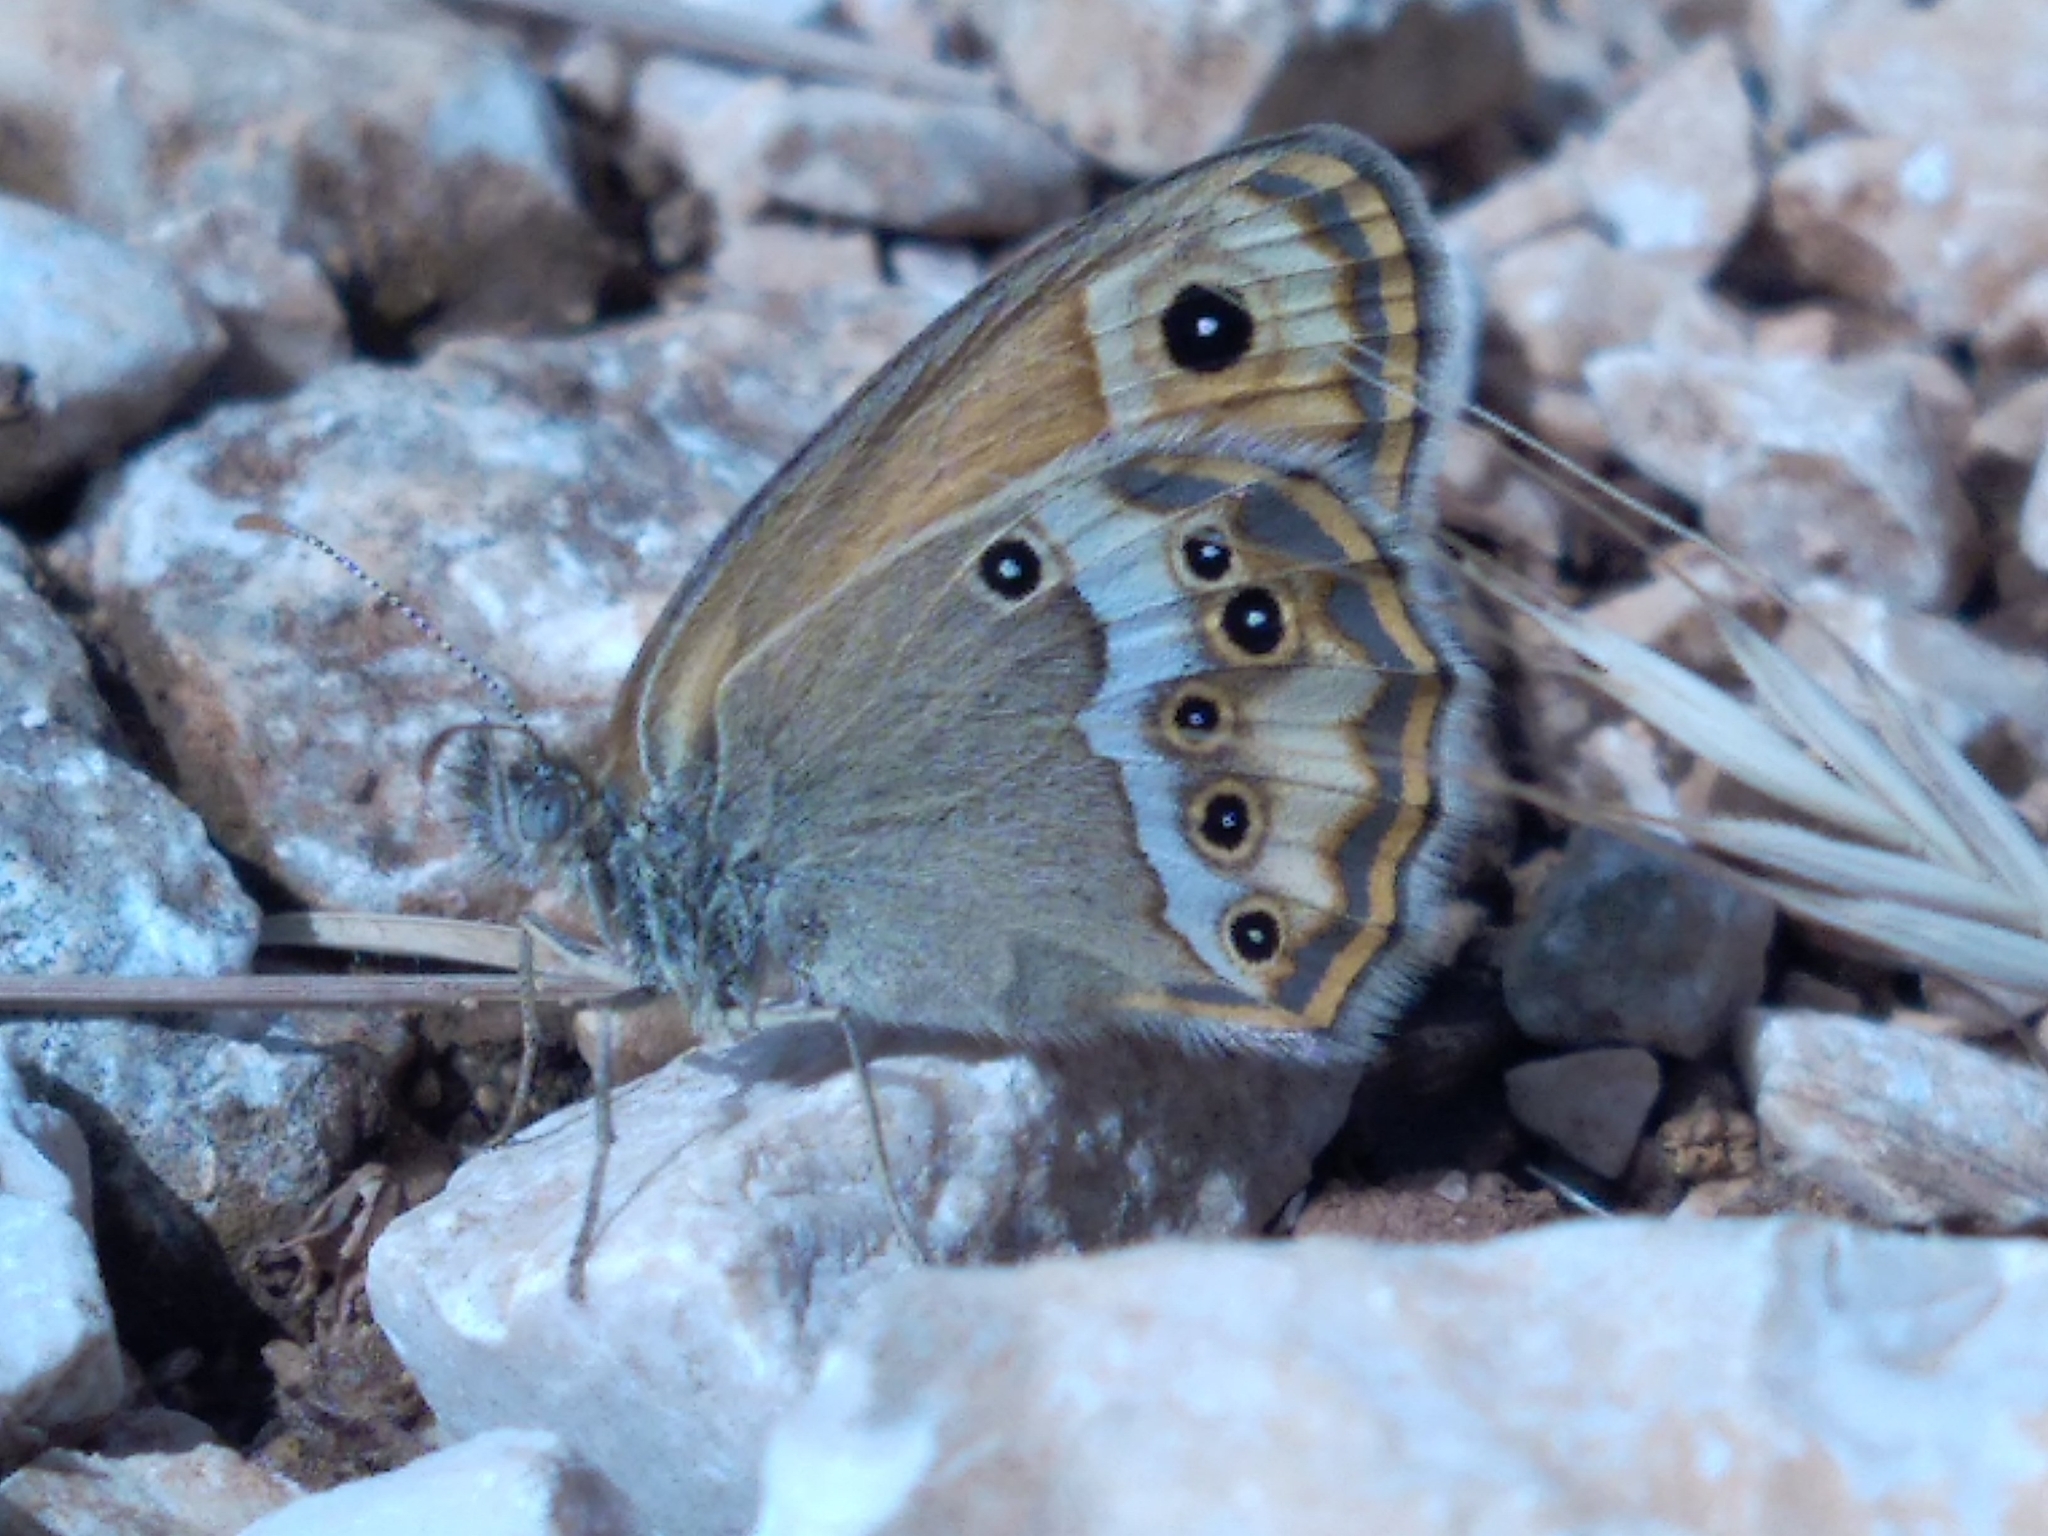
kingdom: Animalia
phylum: Arthropoda
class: Insecta
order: Lepidoptera
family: Nymphalidae
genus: Coenonympha
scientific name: Coenonympha dorus
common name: Dusky heath
